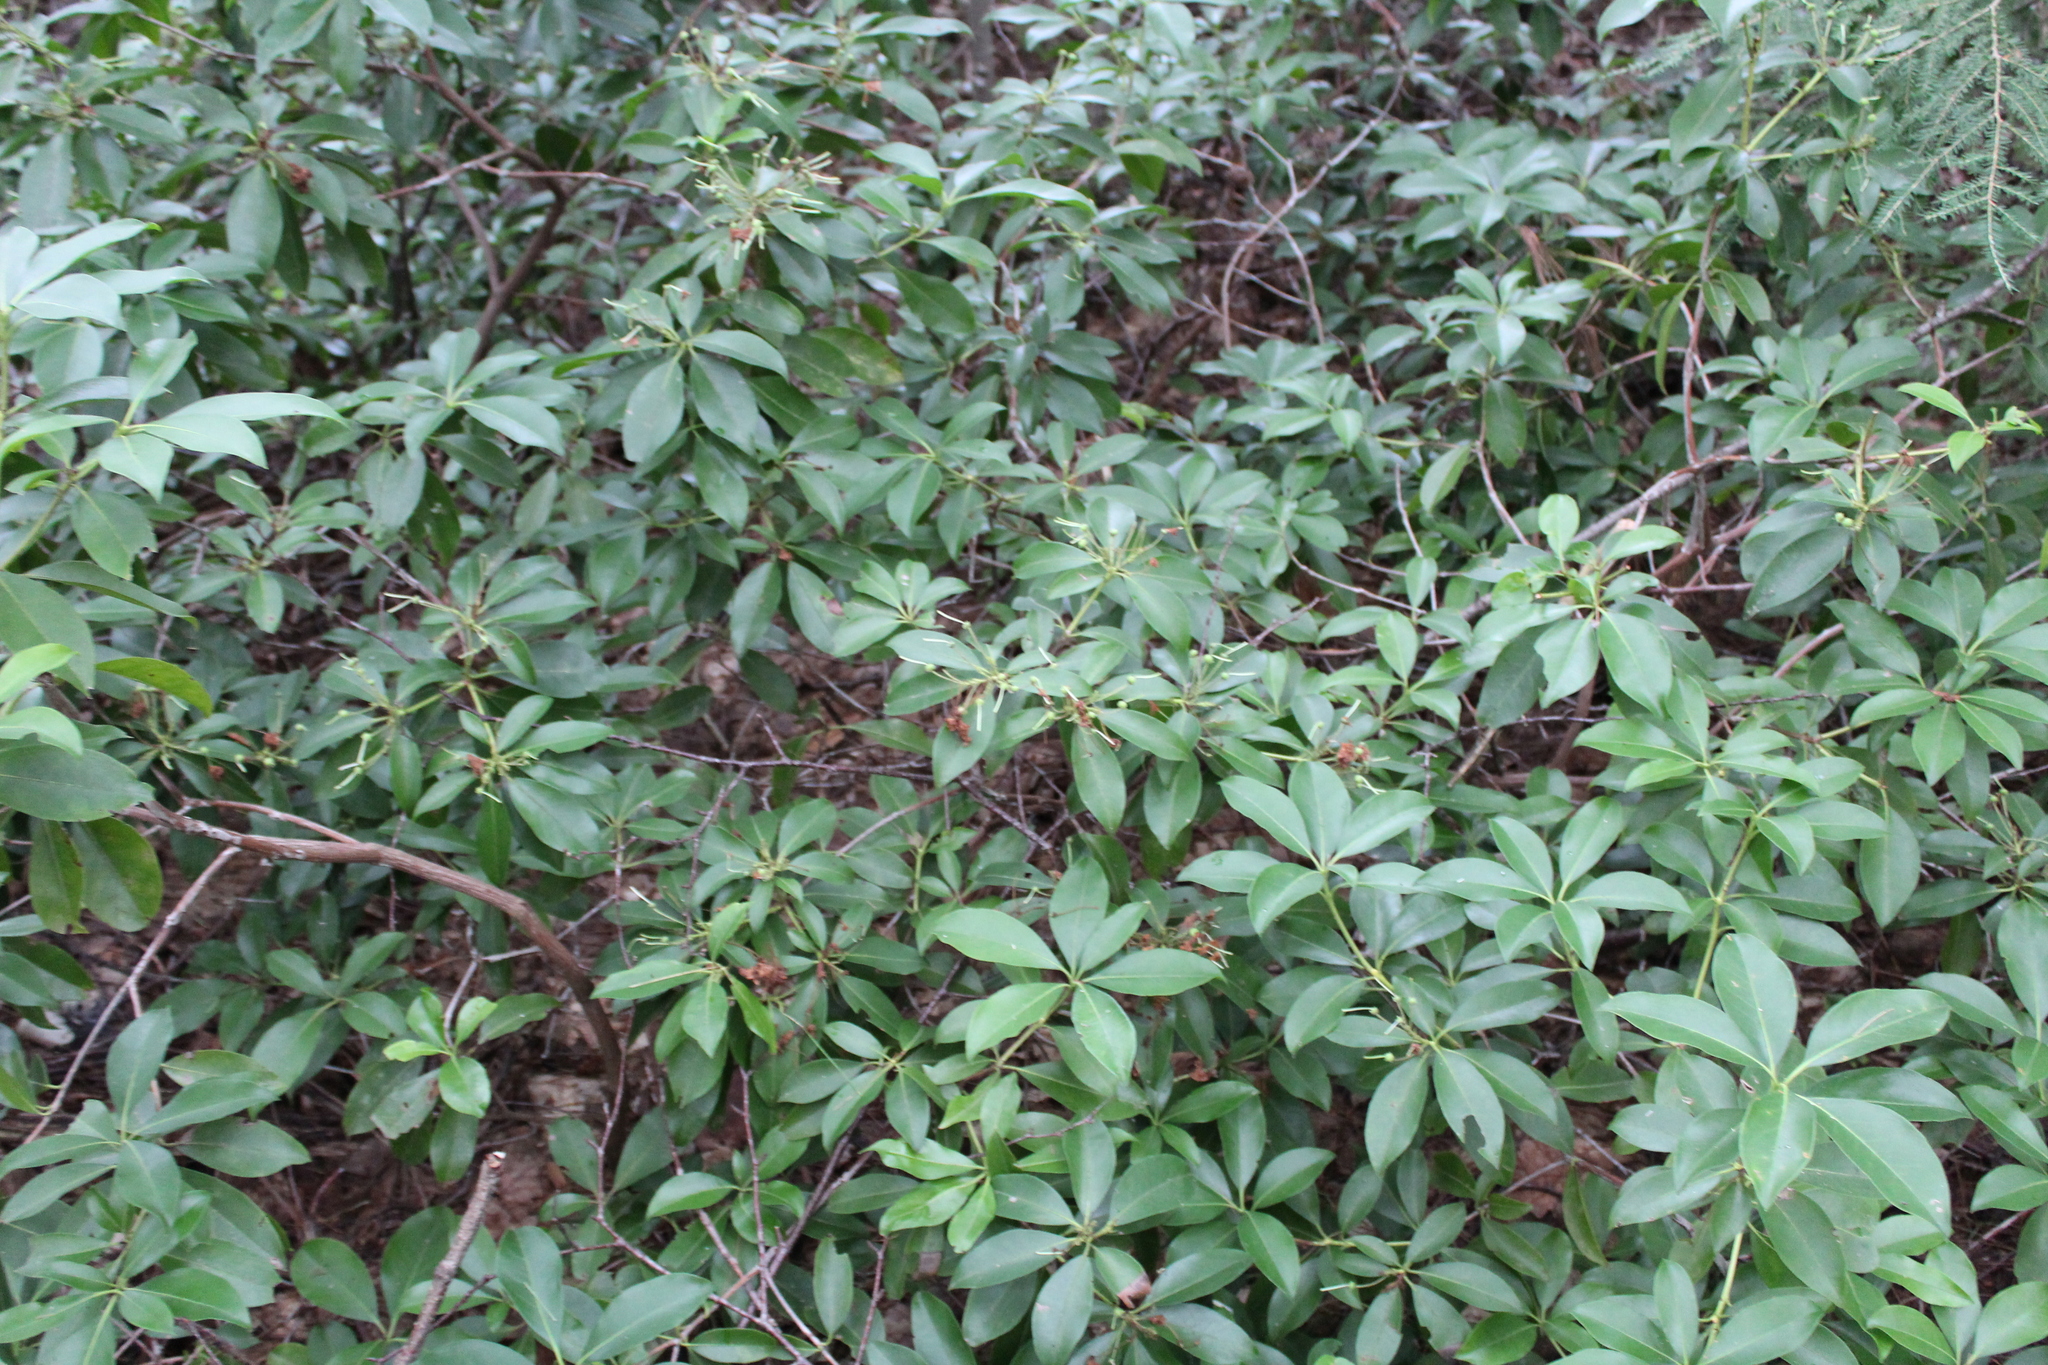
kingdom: Plantae
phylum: Tracheophyta
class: Magnoliopsida
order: Ericales
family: Ericaceae
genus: Kalmia
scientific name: Kalmia latifolia
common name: Mountain-laurel
